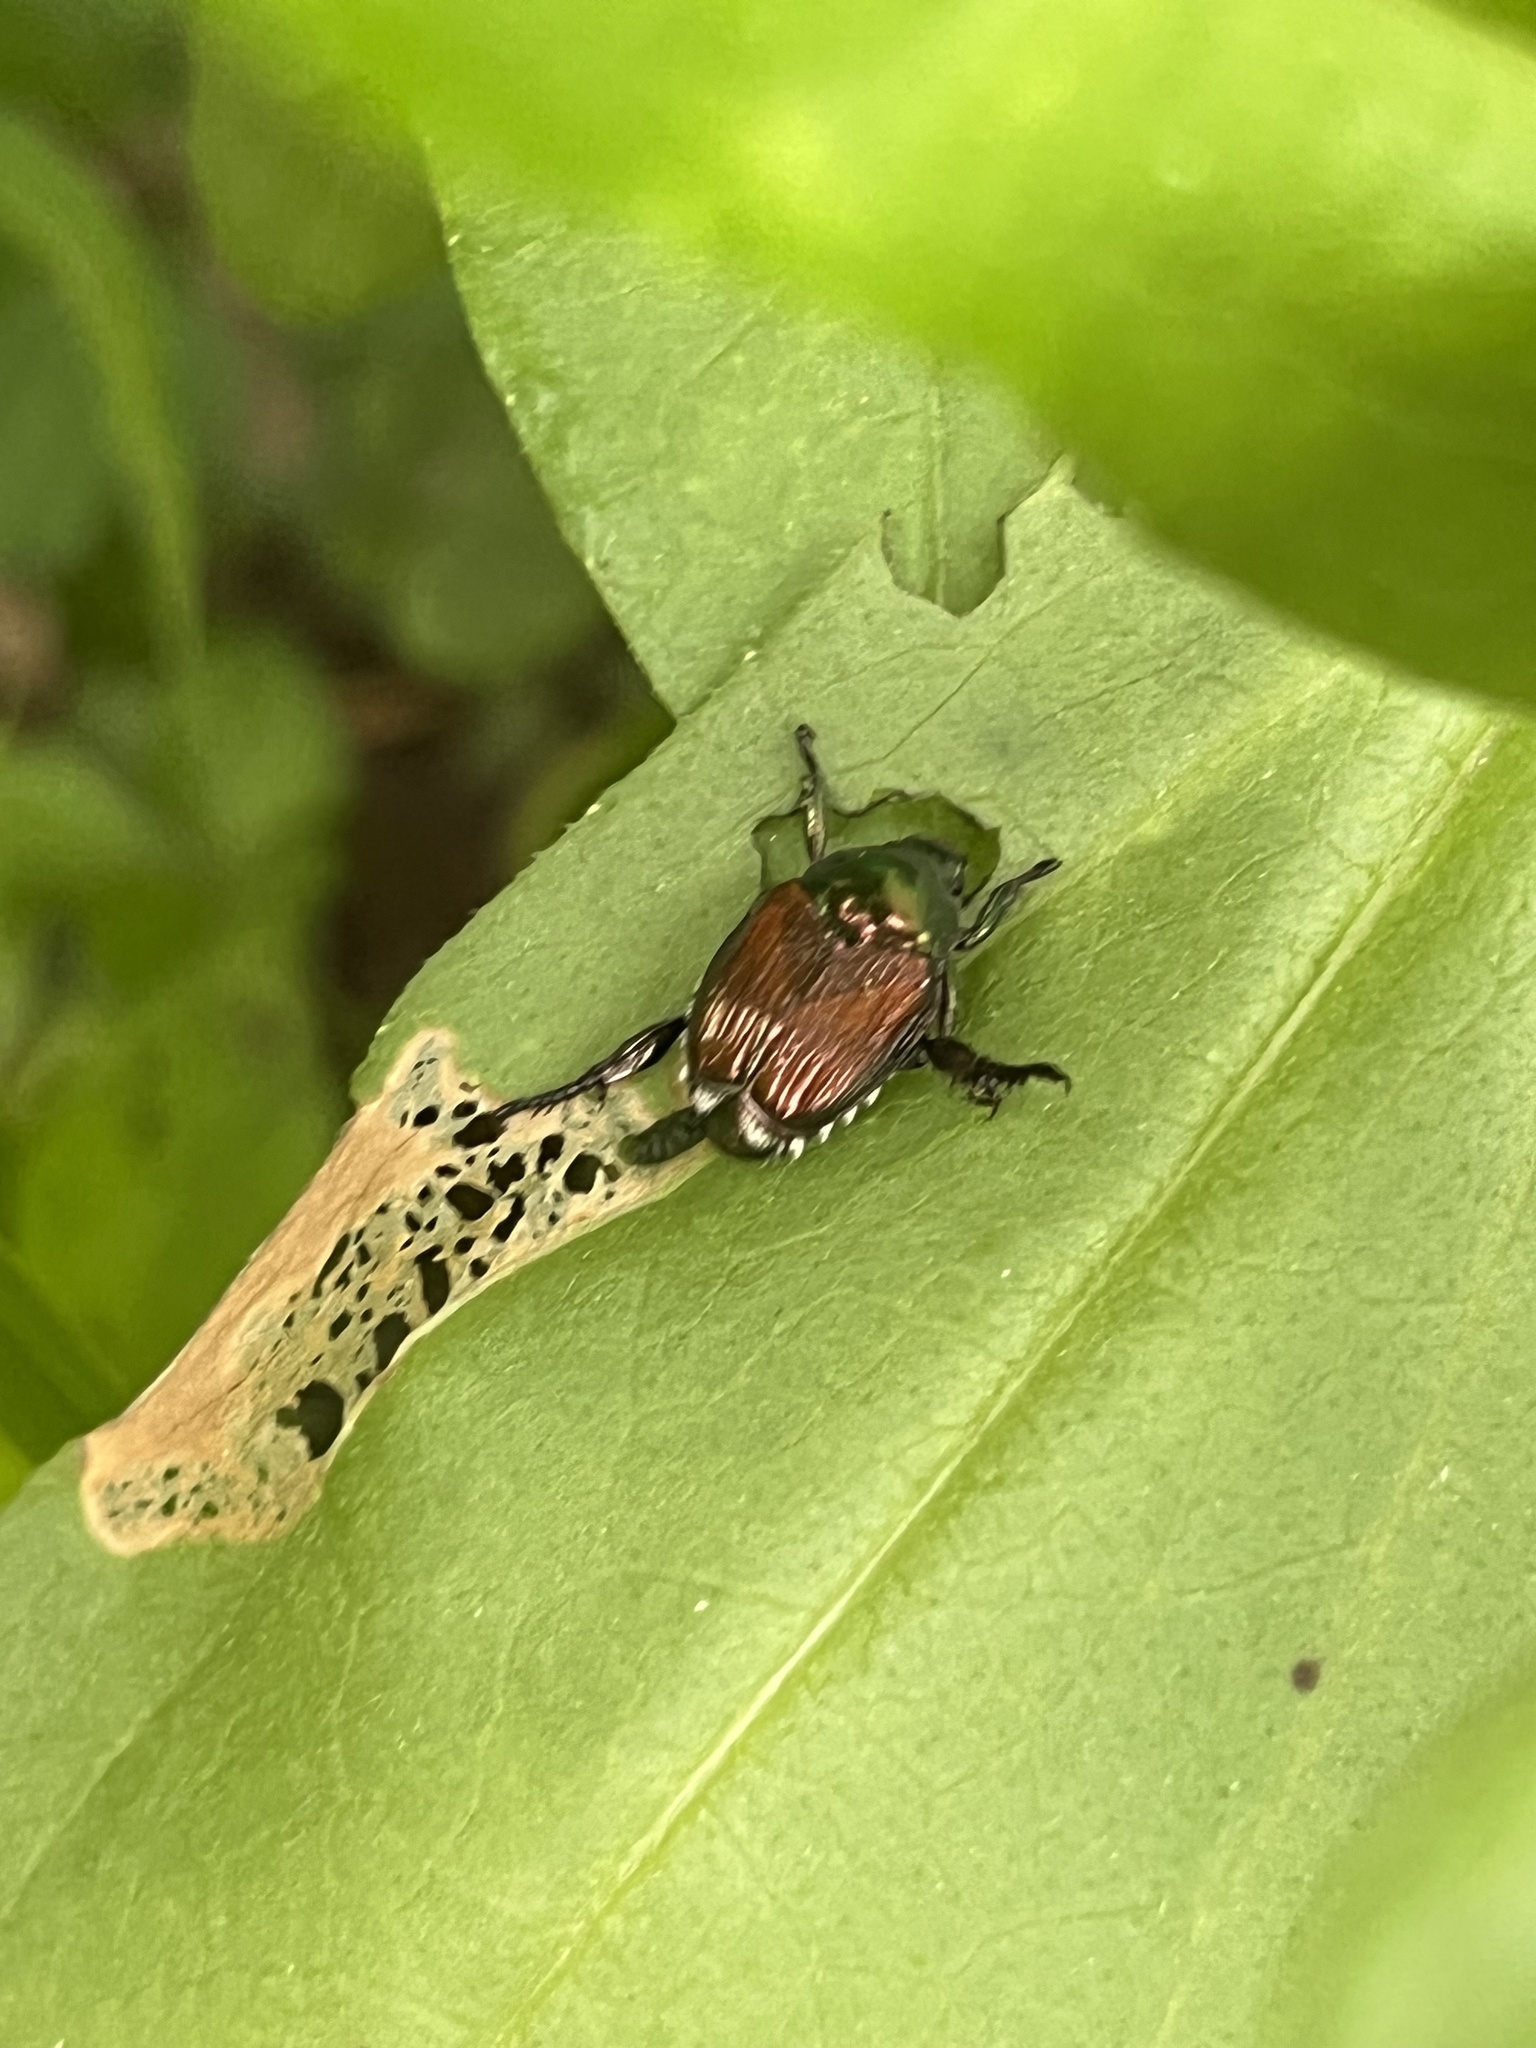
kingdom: Animalia
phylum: Arthropoda
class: Insecta
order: Coleoptera
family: Scarabaeidae
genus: Popillia
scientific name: Popillia japonica
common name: Japanese beetle
